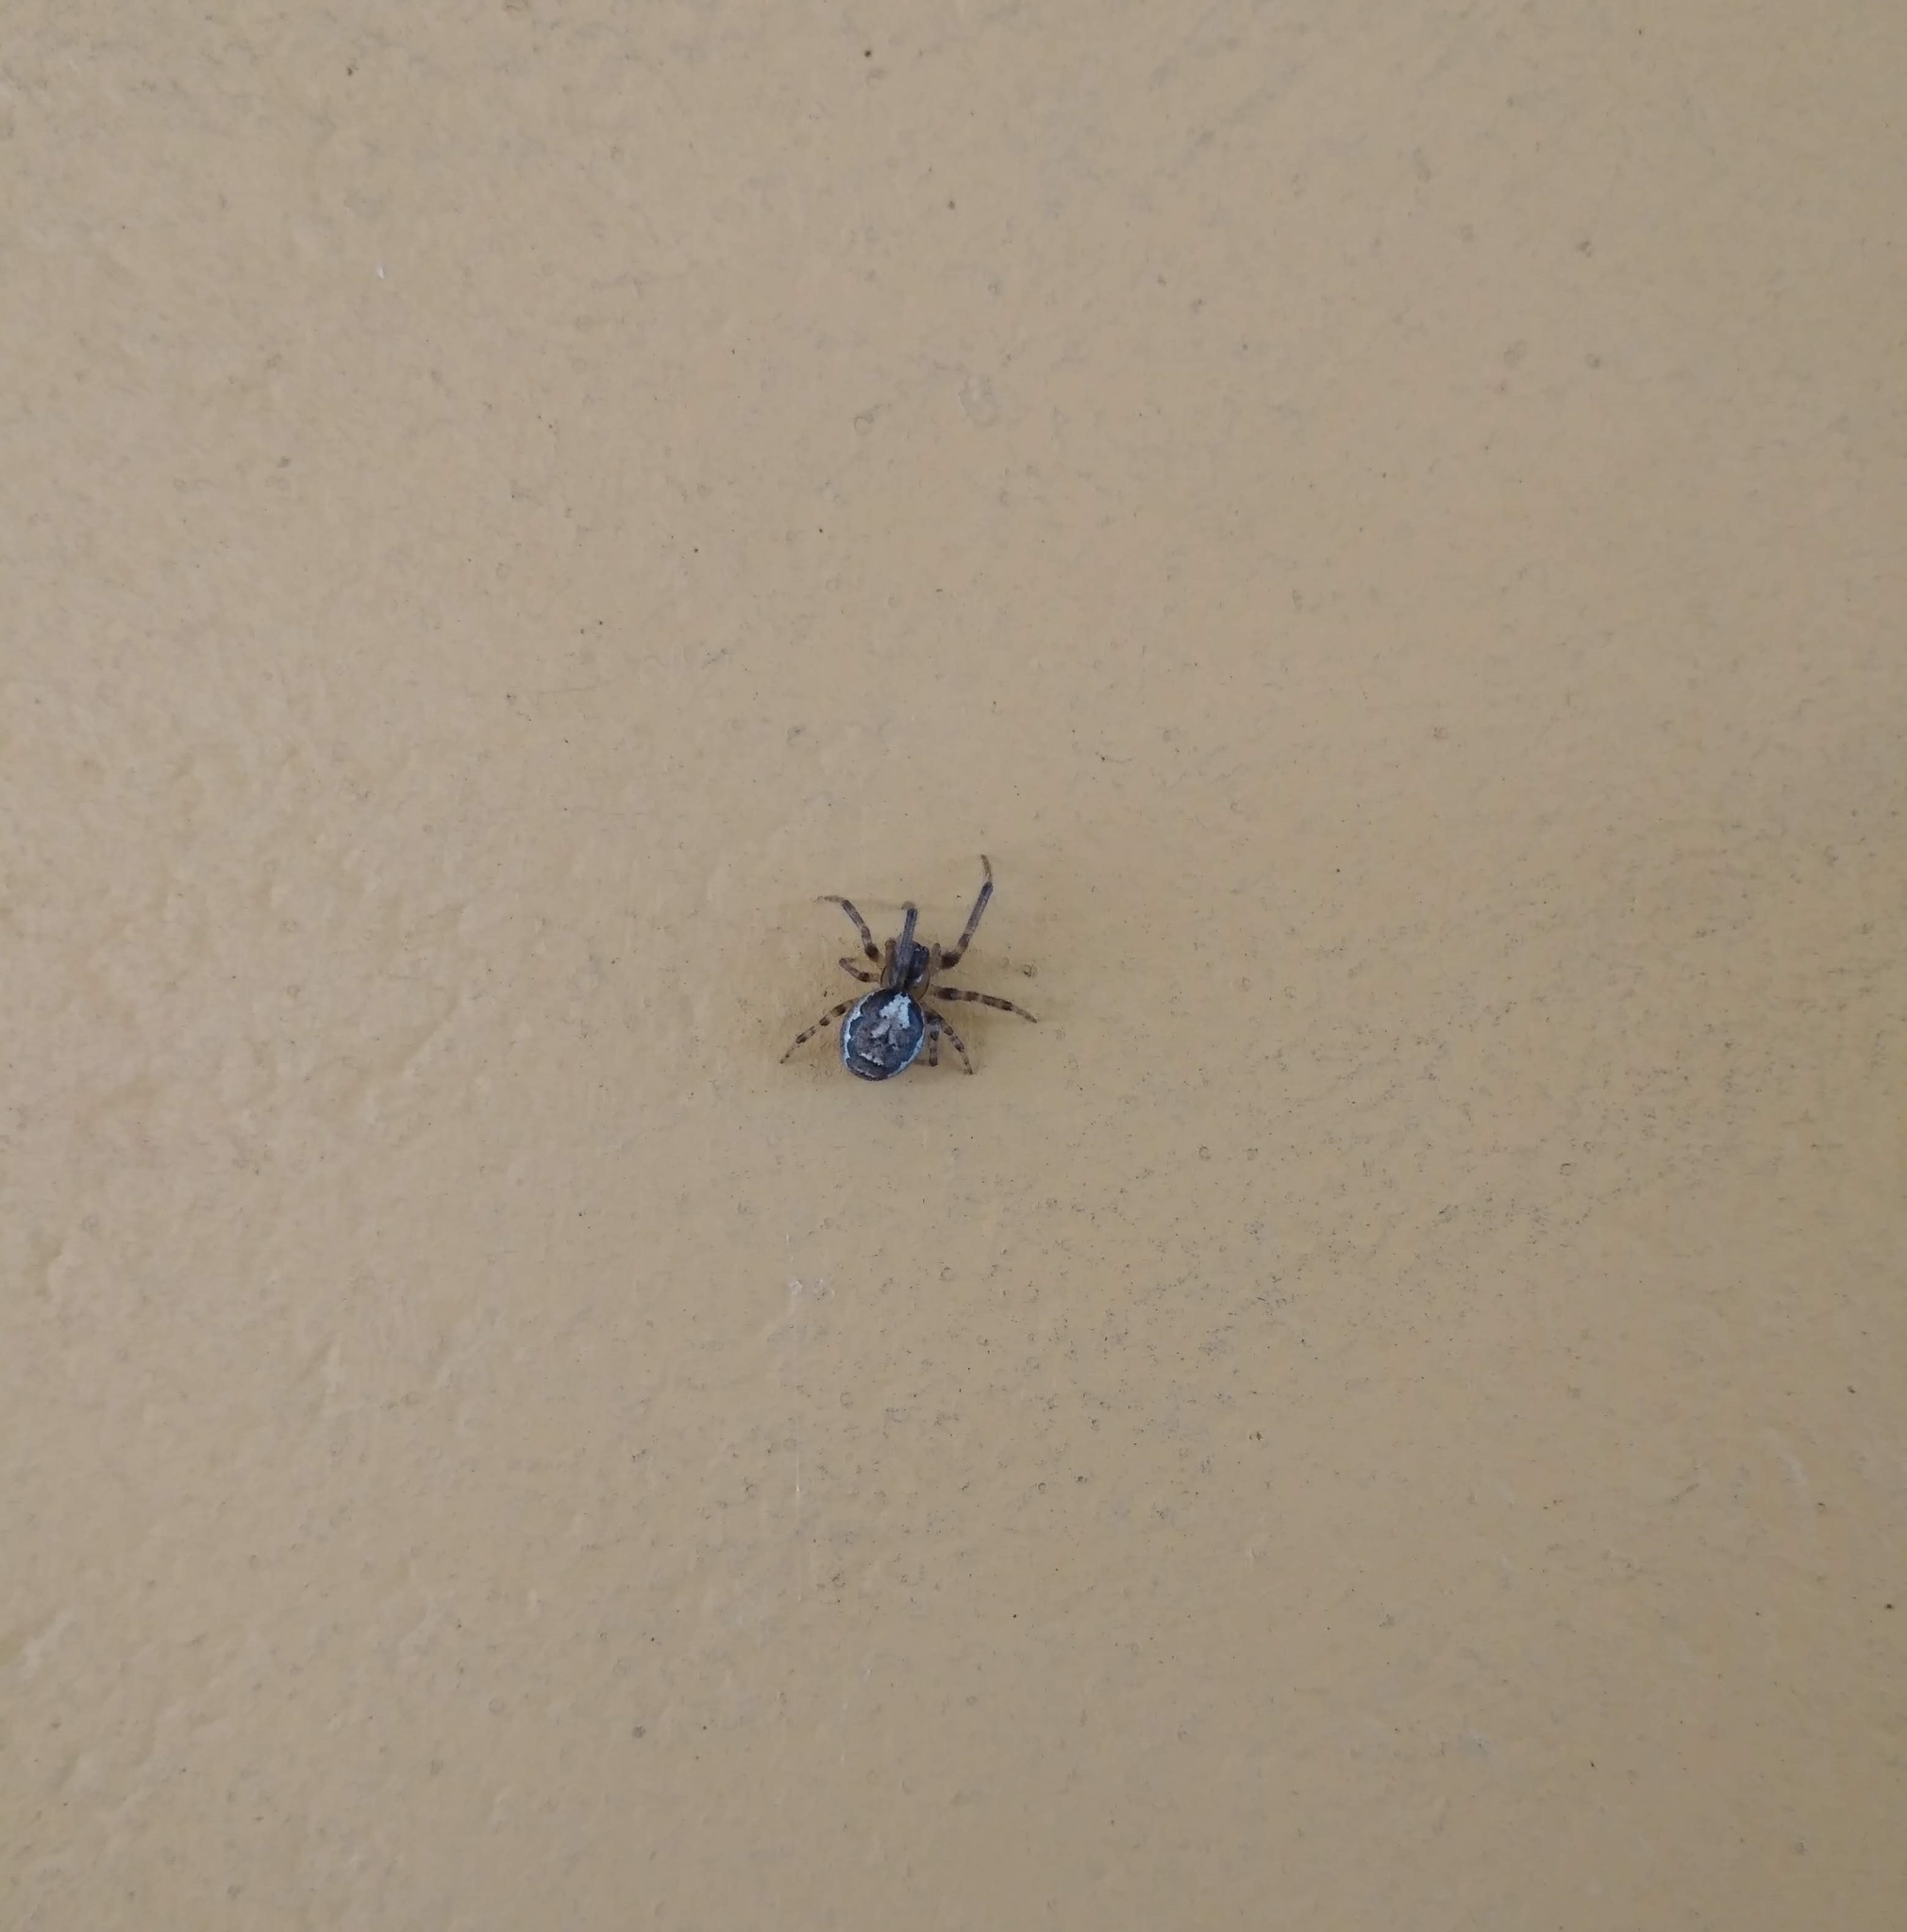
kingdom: Animalia
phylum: Arthropoda
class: Arachnida
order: Araneae
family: Araneidae
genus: Zygiella
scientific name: Zygiella x-notata
